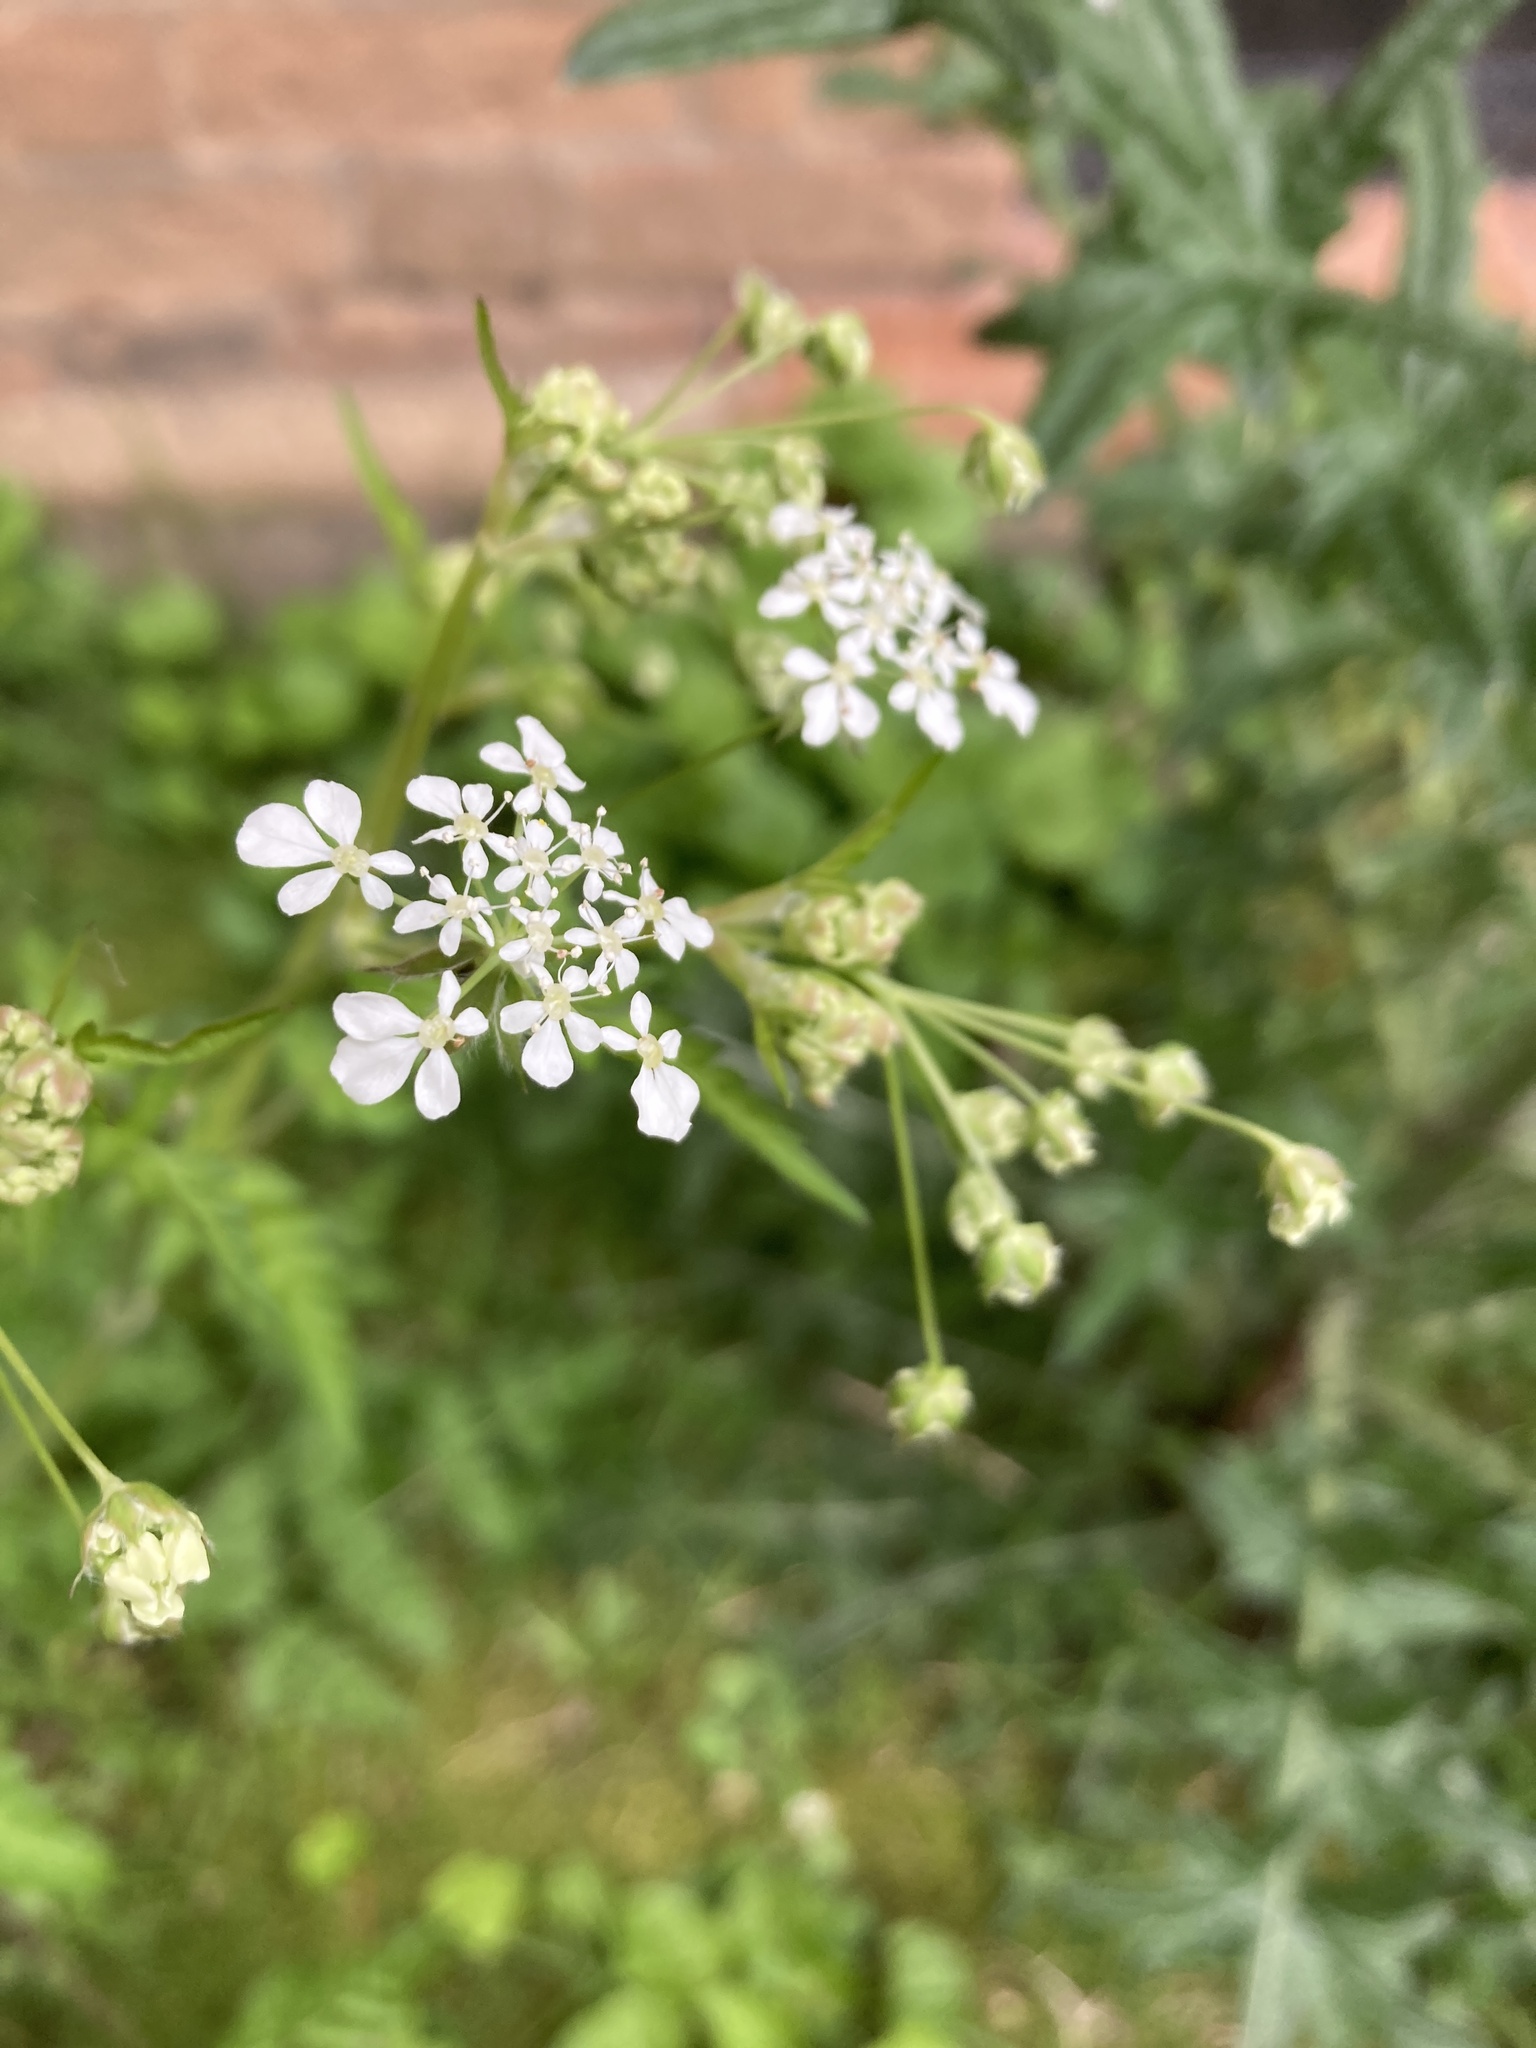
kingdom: Plantae
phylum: Tracheophyta
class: Magnoliopsida
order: Apiales
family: Apiaceae
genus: Anthriscus
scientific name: Anthriscus sylvestris
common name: Cow parsley
